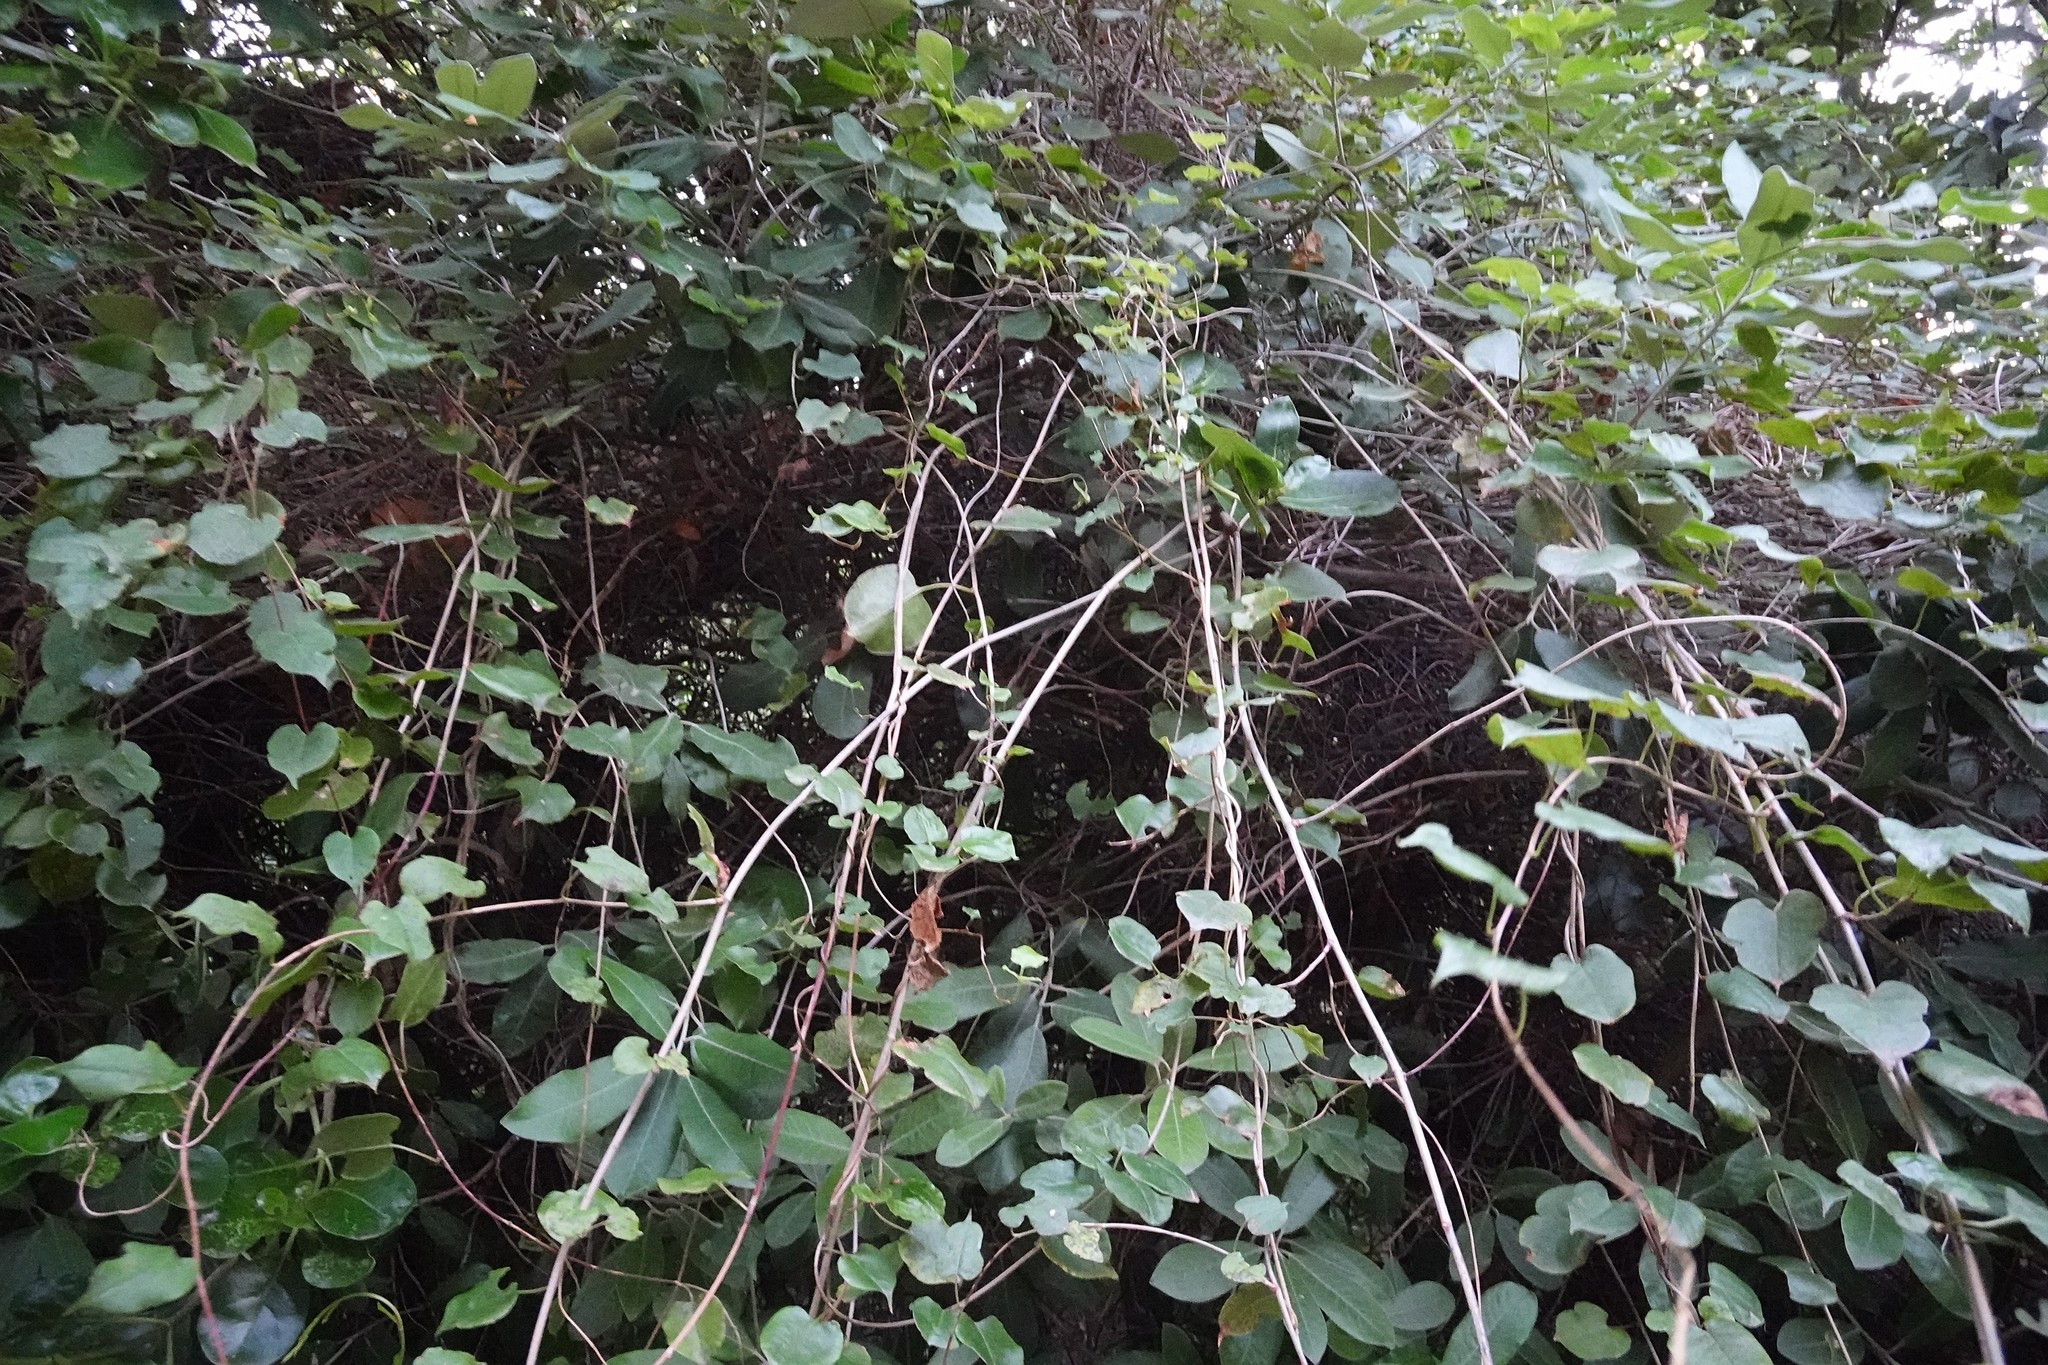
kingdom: Plantae
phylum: Tracheophyta
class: Magnoliopsida
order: Caryophyllales
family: Polygonaceae
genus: Muehlenbeckia
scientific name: Muehlenbeckia australis
